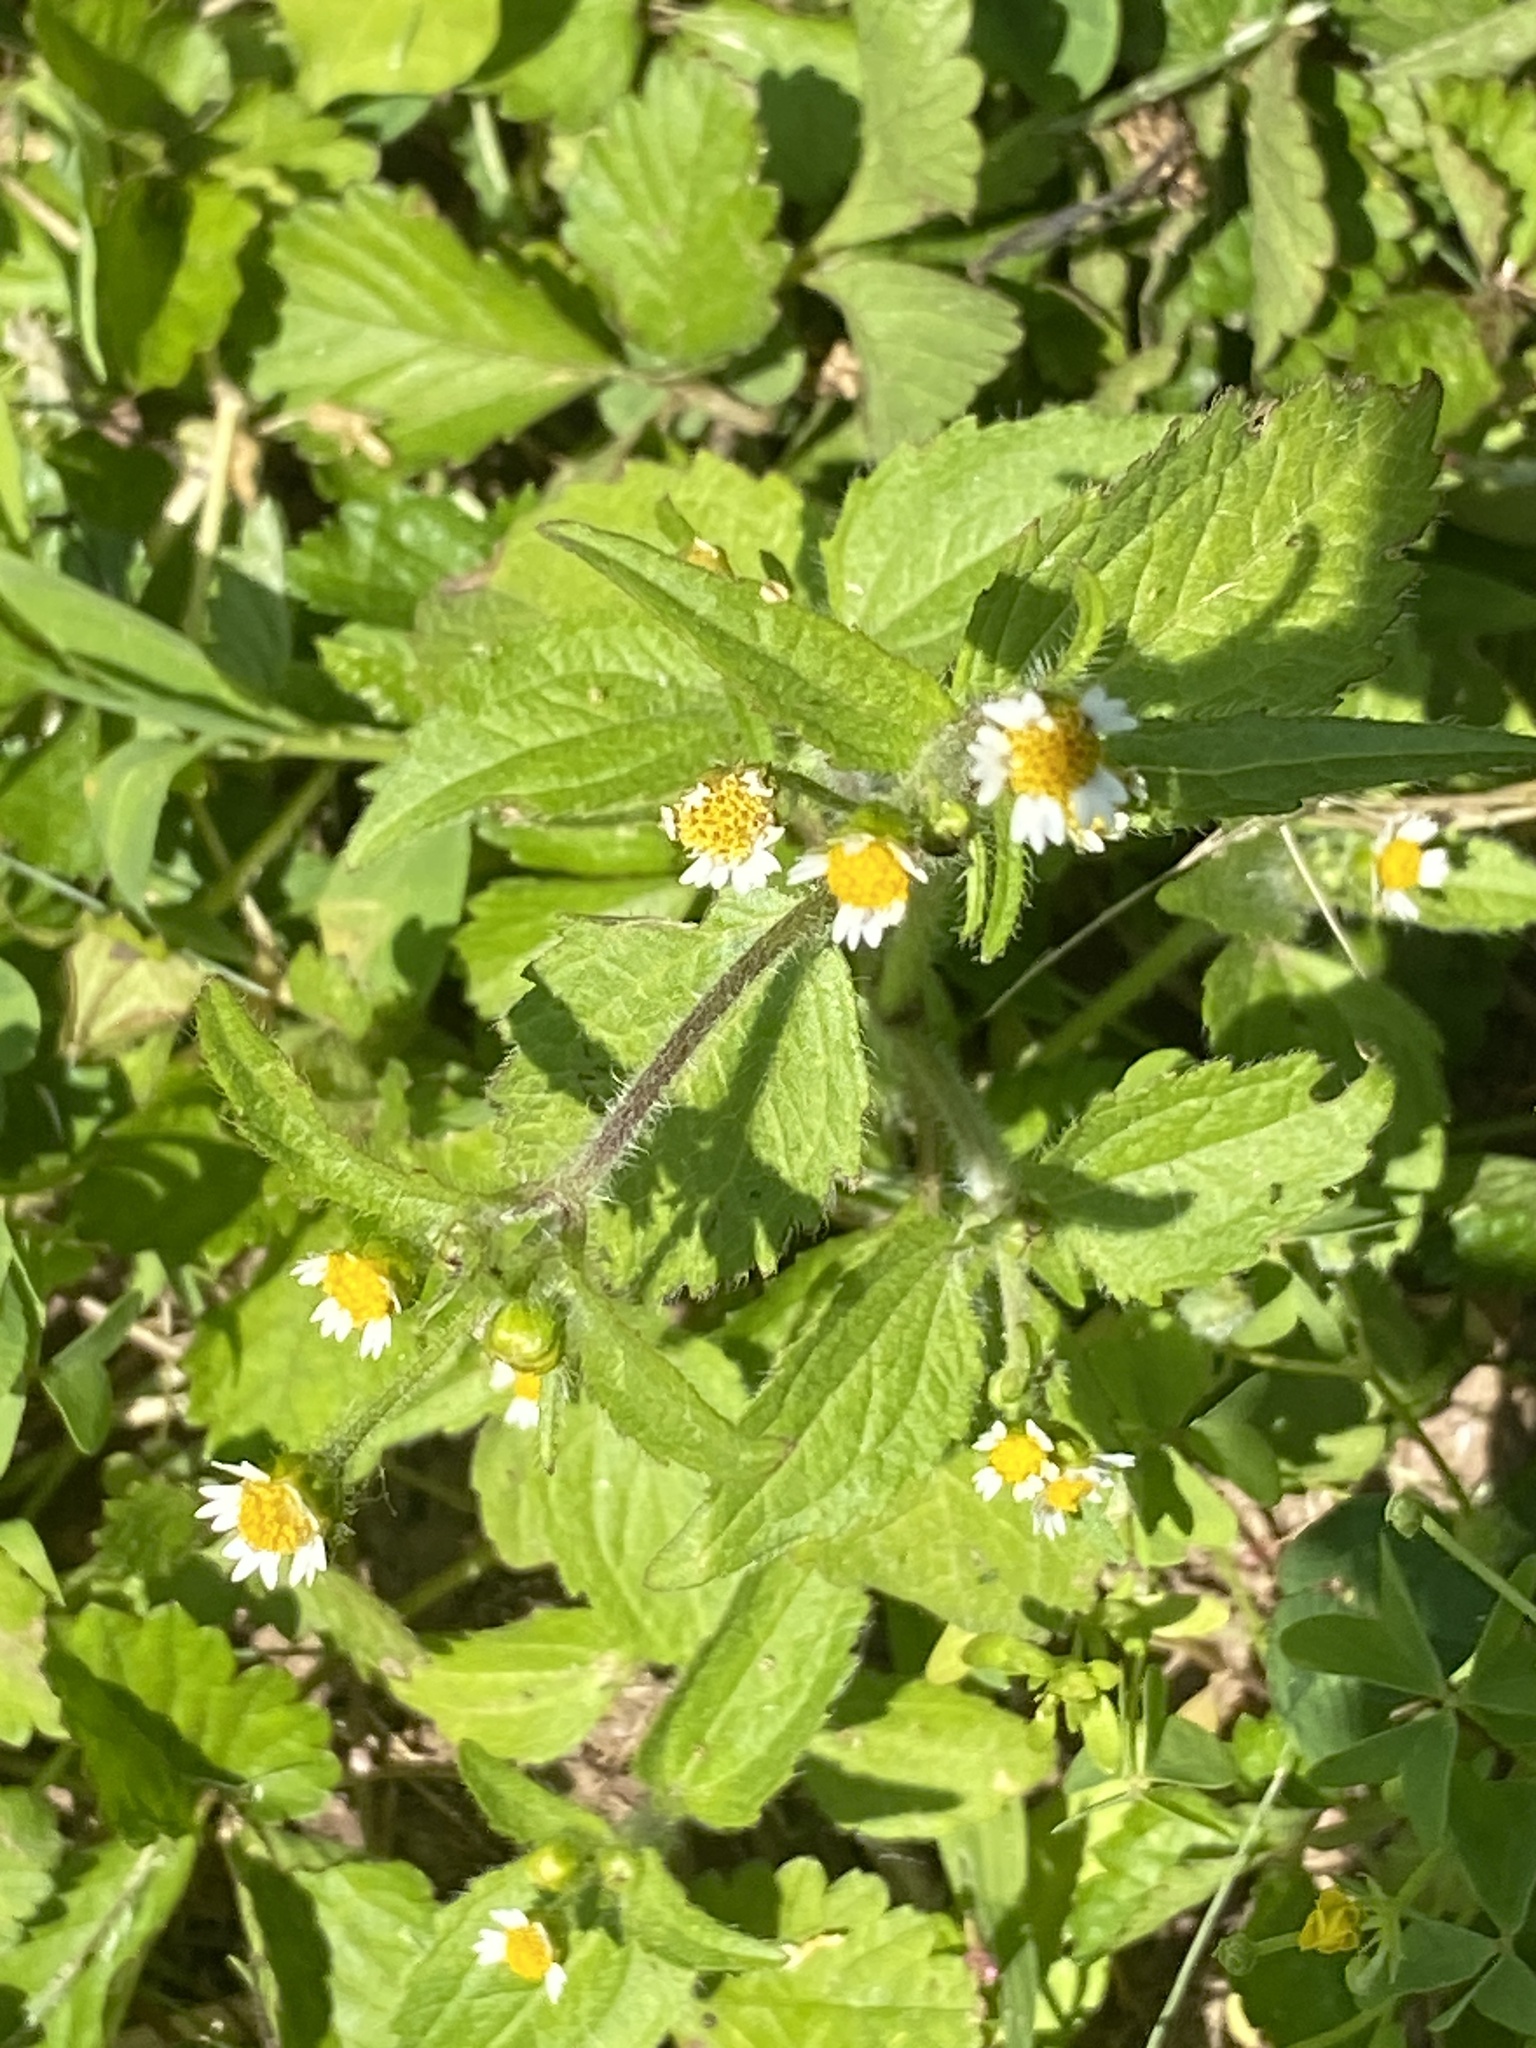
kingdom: Plantae
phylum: Tracheophyta
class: Magnoliopsida
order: Asterales
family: Asteraceae
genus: Galinsoga
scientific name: Galinsoga quadriradiata
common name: Shaggy soldier
